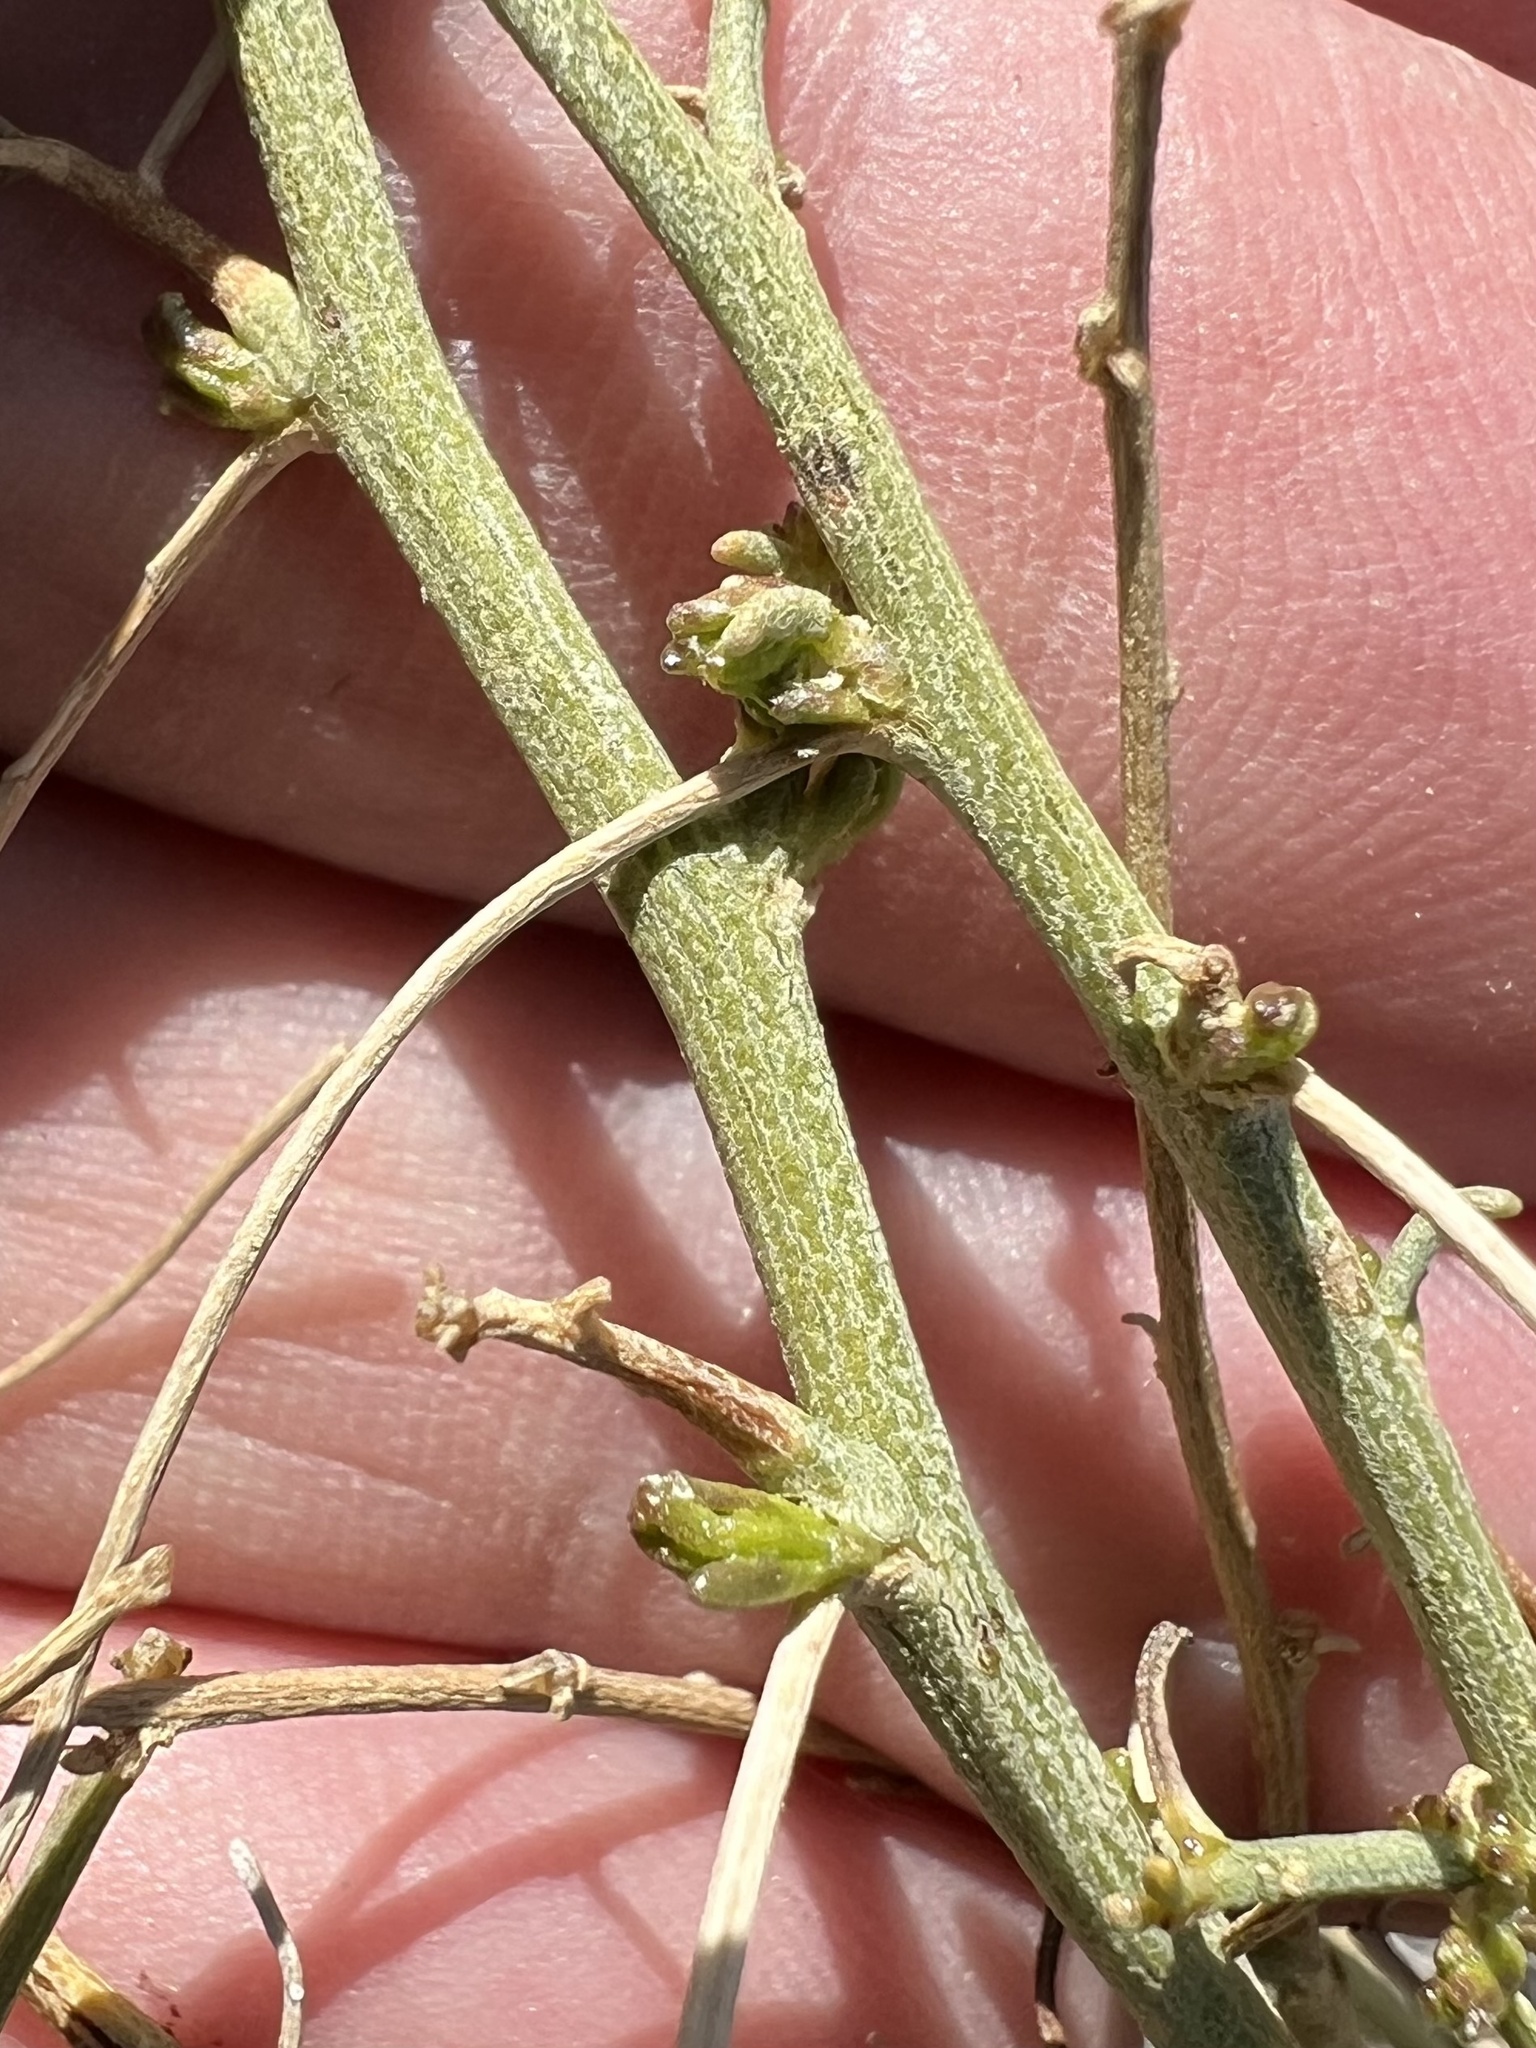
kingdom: Plantae
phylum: Tracheophyta
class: Magnoliopsida
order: Asterales
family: Asteraceae
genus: Ambrosia
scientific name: Ambrosia salsola
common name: Burrobrush
